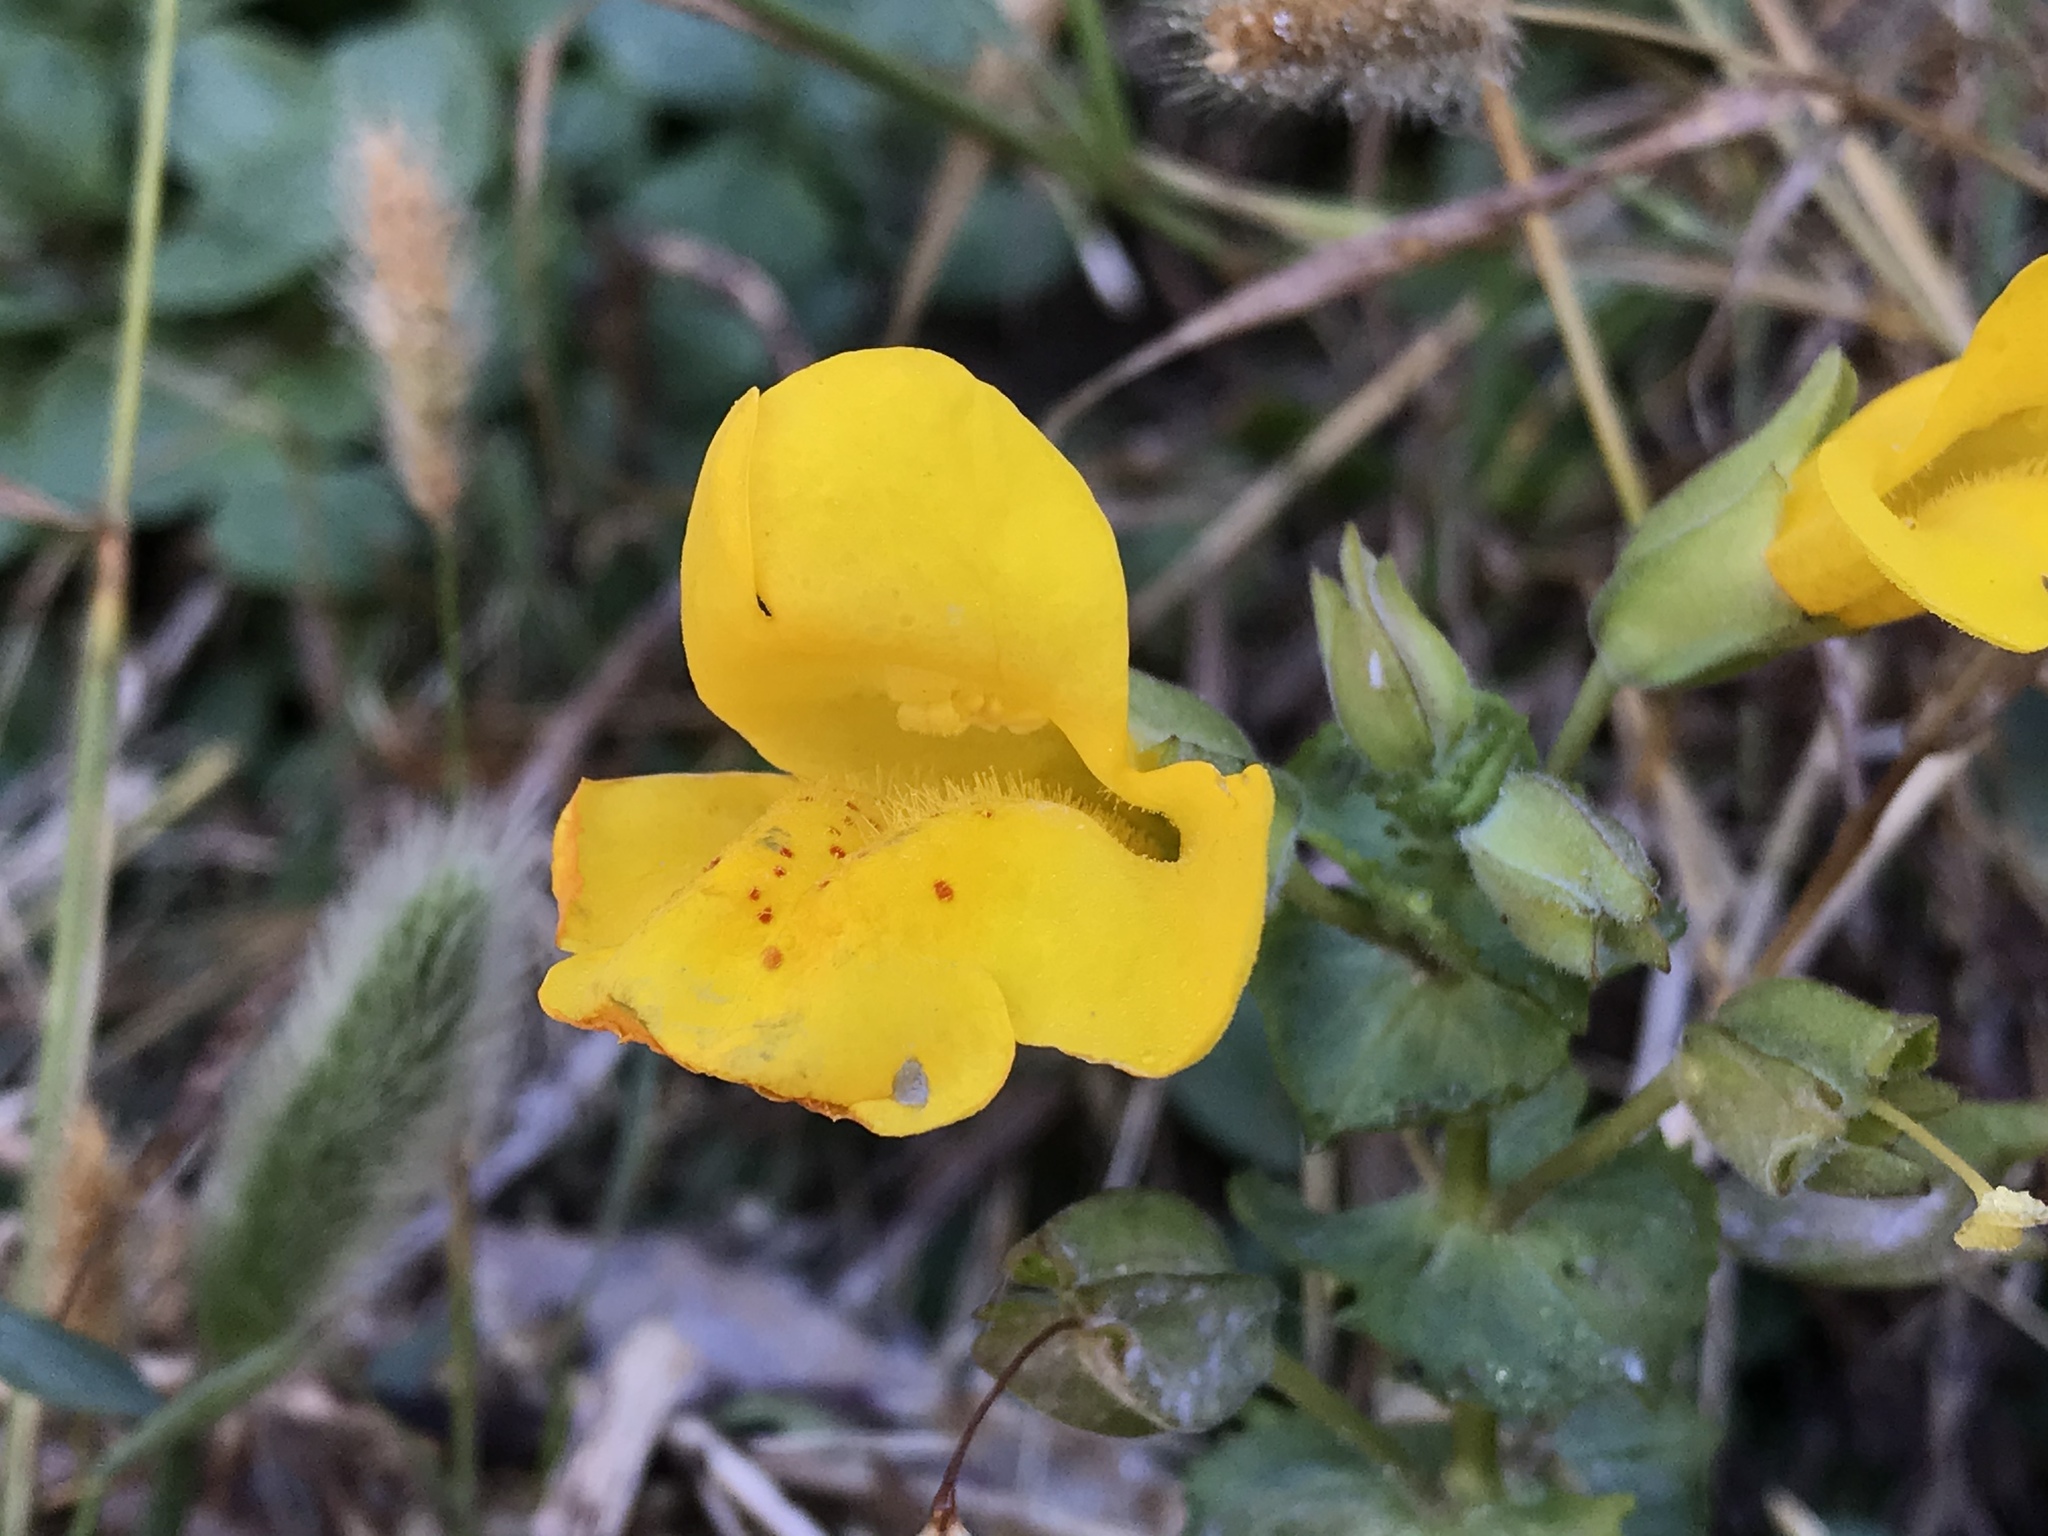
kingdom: Plantae
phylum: Tracheophyta
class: Magnoliopsida
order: Lamiales
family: Phrymaceae
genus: Erythranthe
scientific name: Erythranthe grandis
